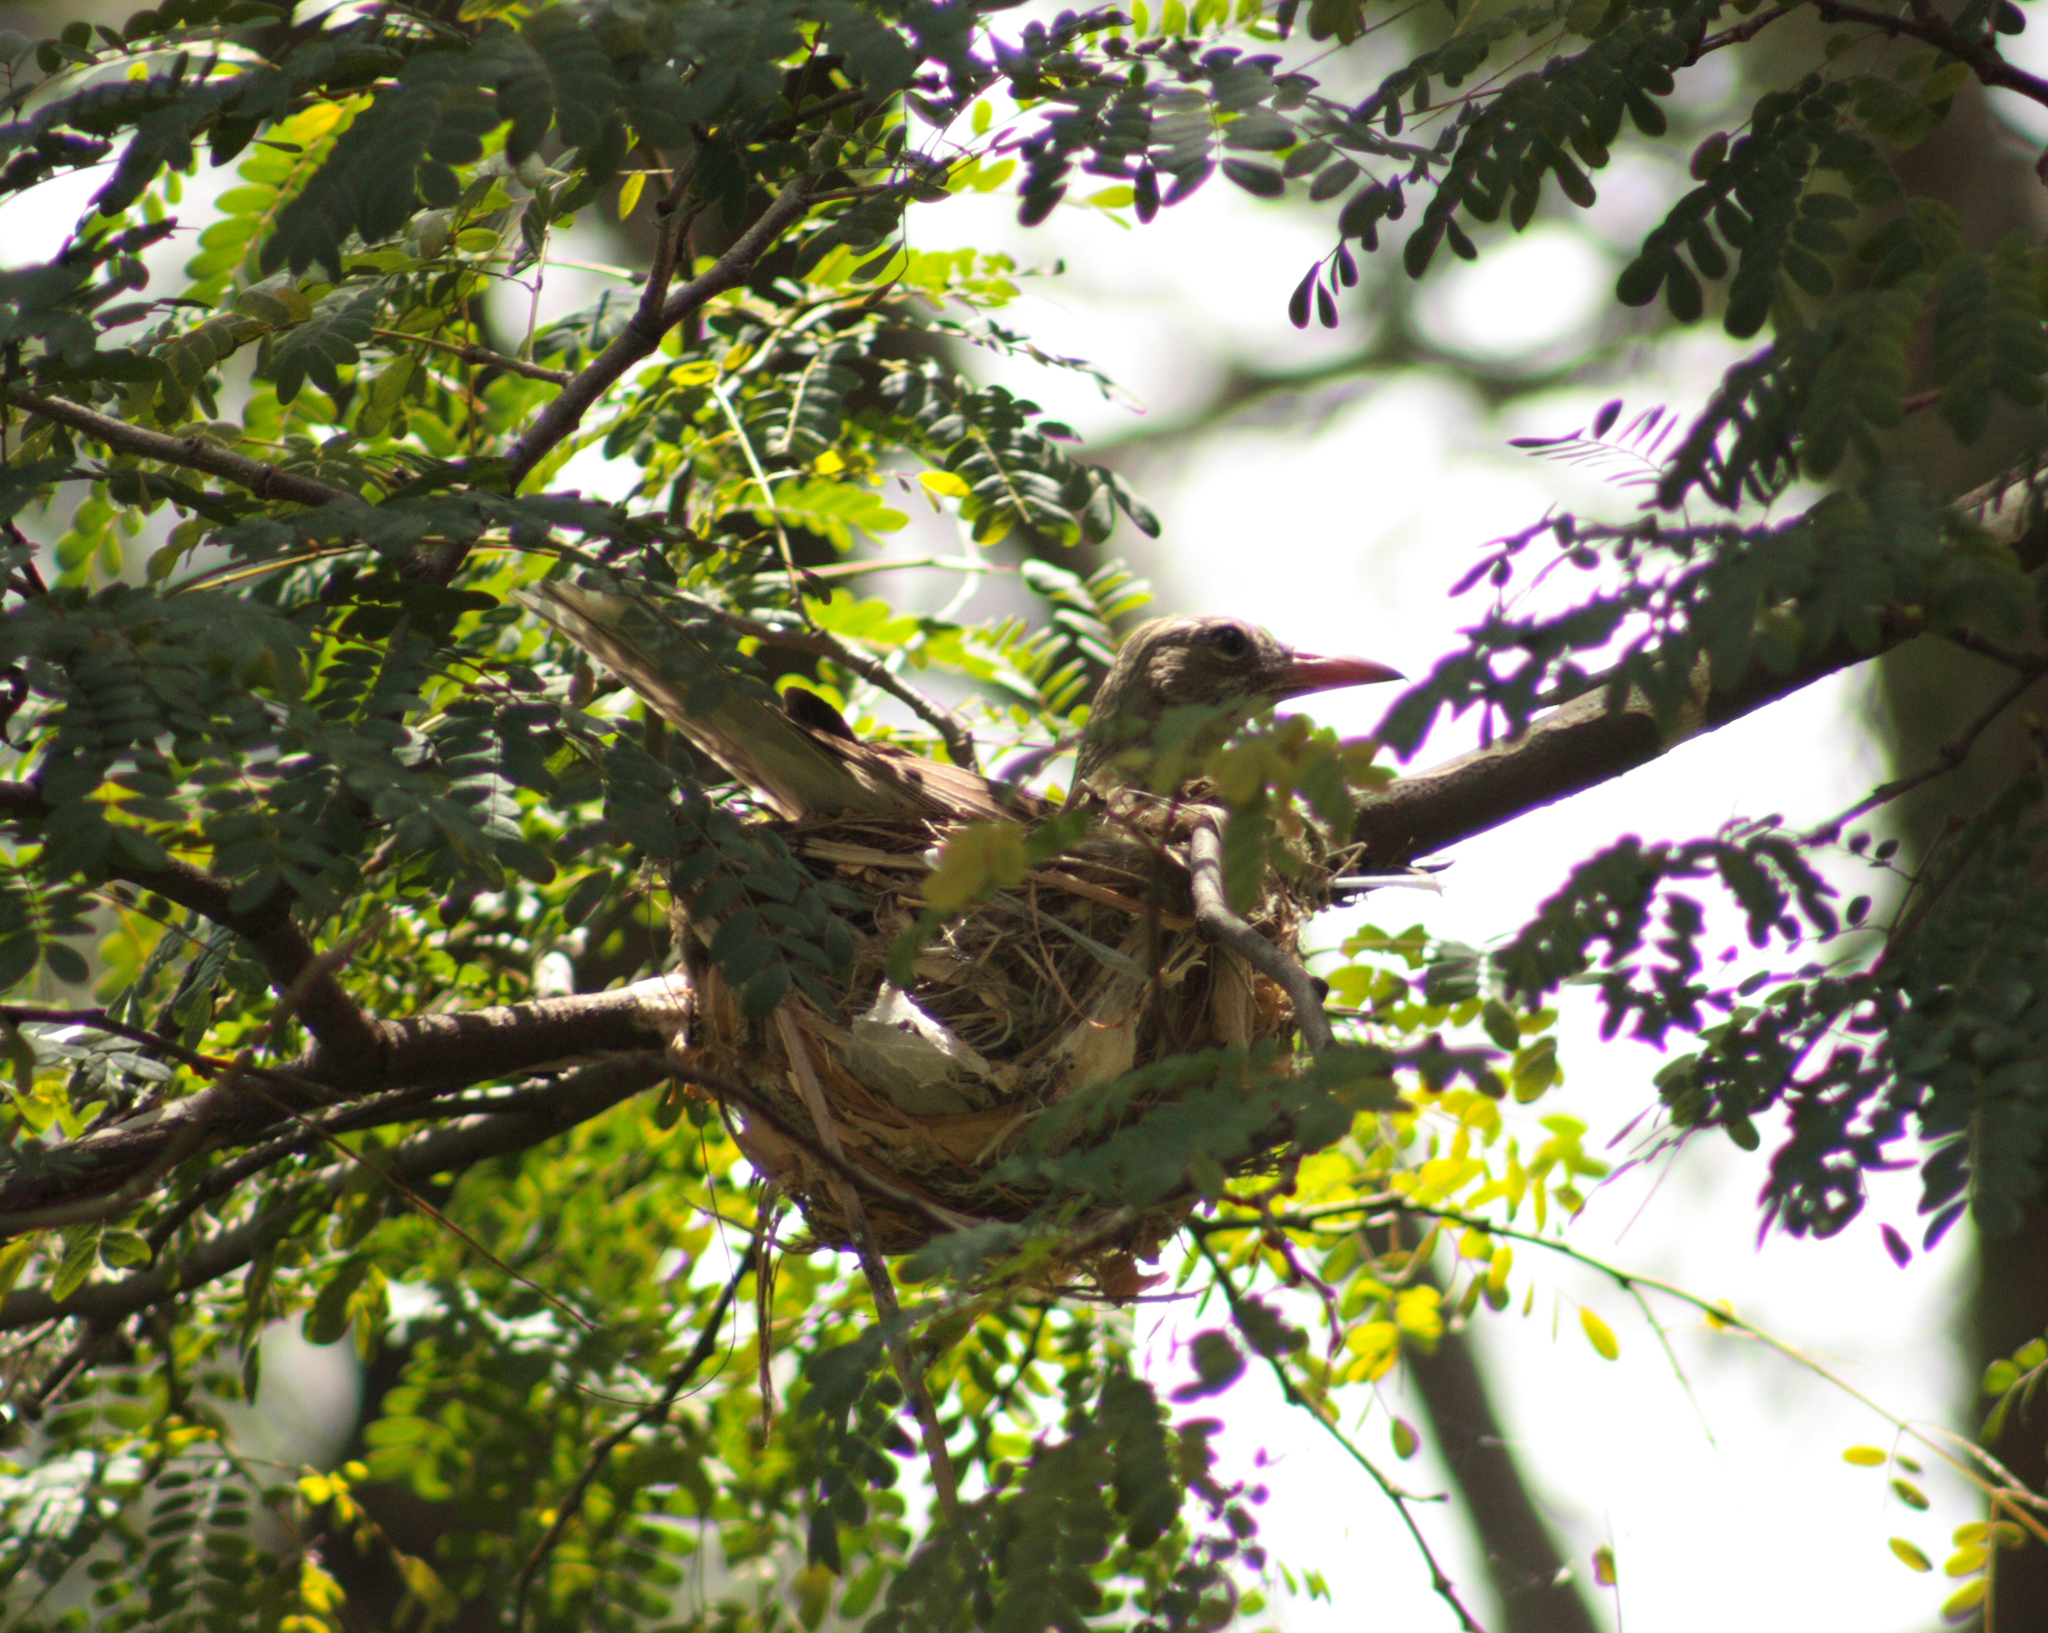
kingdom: Animalia
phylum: Chordata
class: Aves
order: Passeriformes
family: Oriolidae
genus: Oriolus
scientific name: Oriolus sagittatus
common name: Olive-backed oriole
